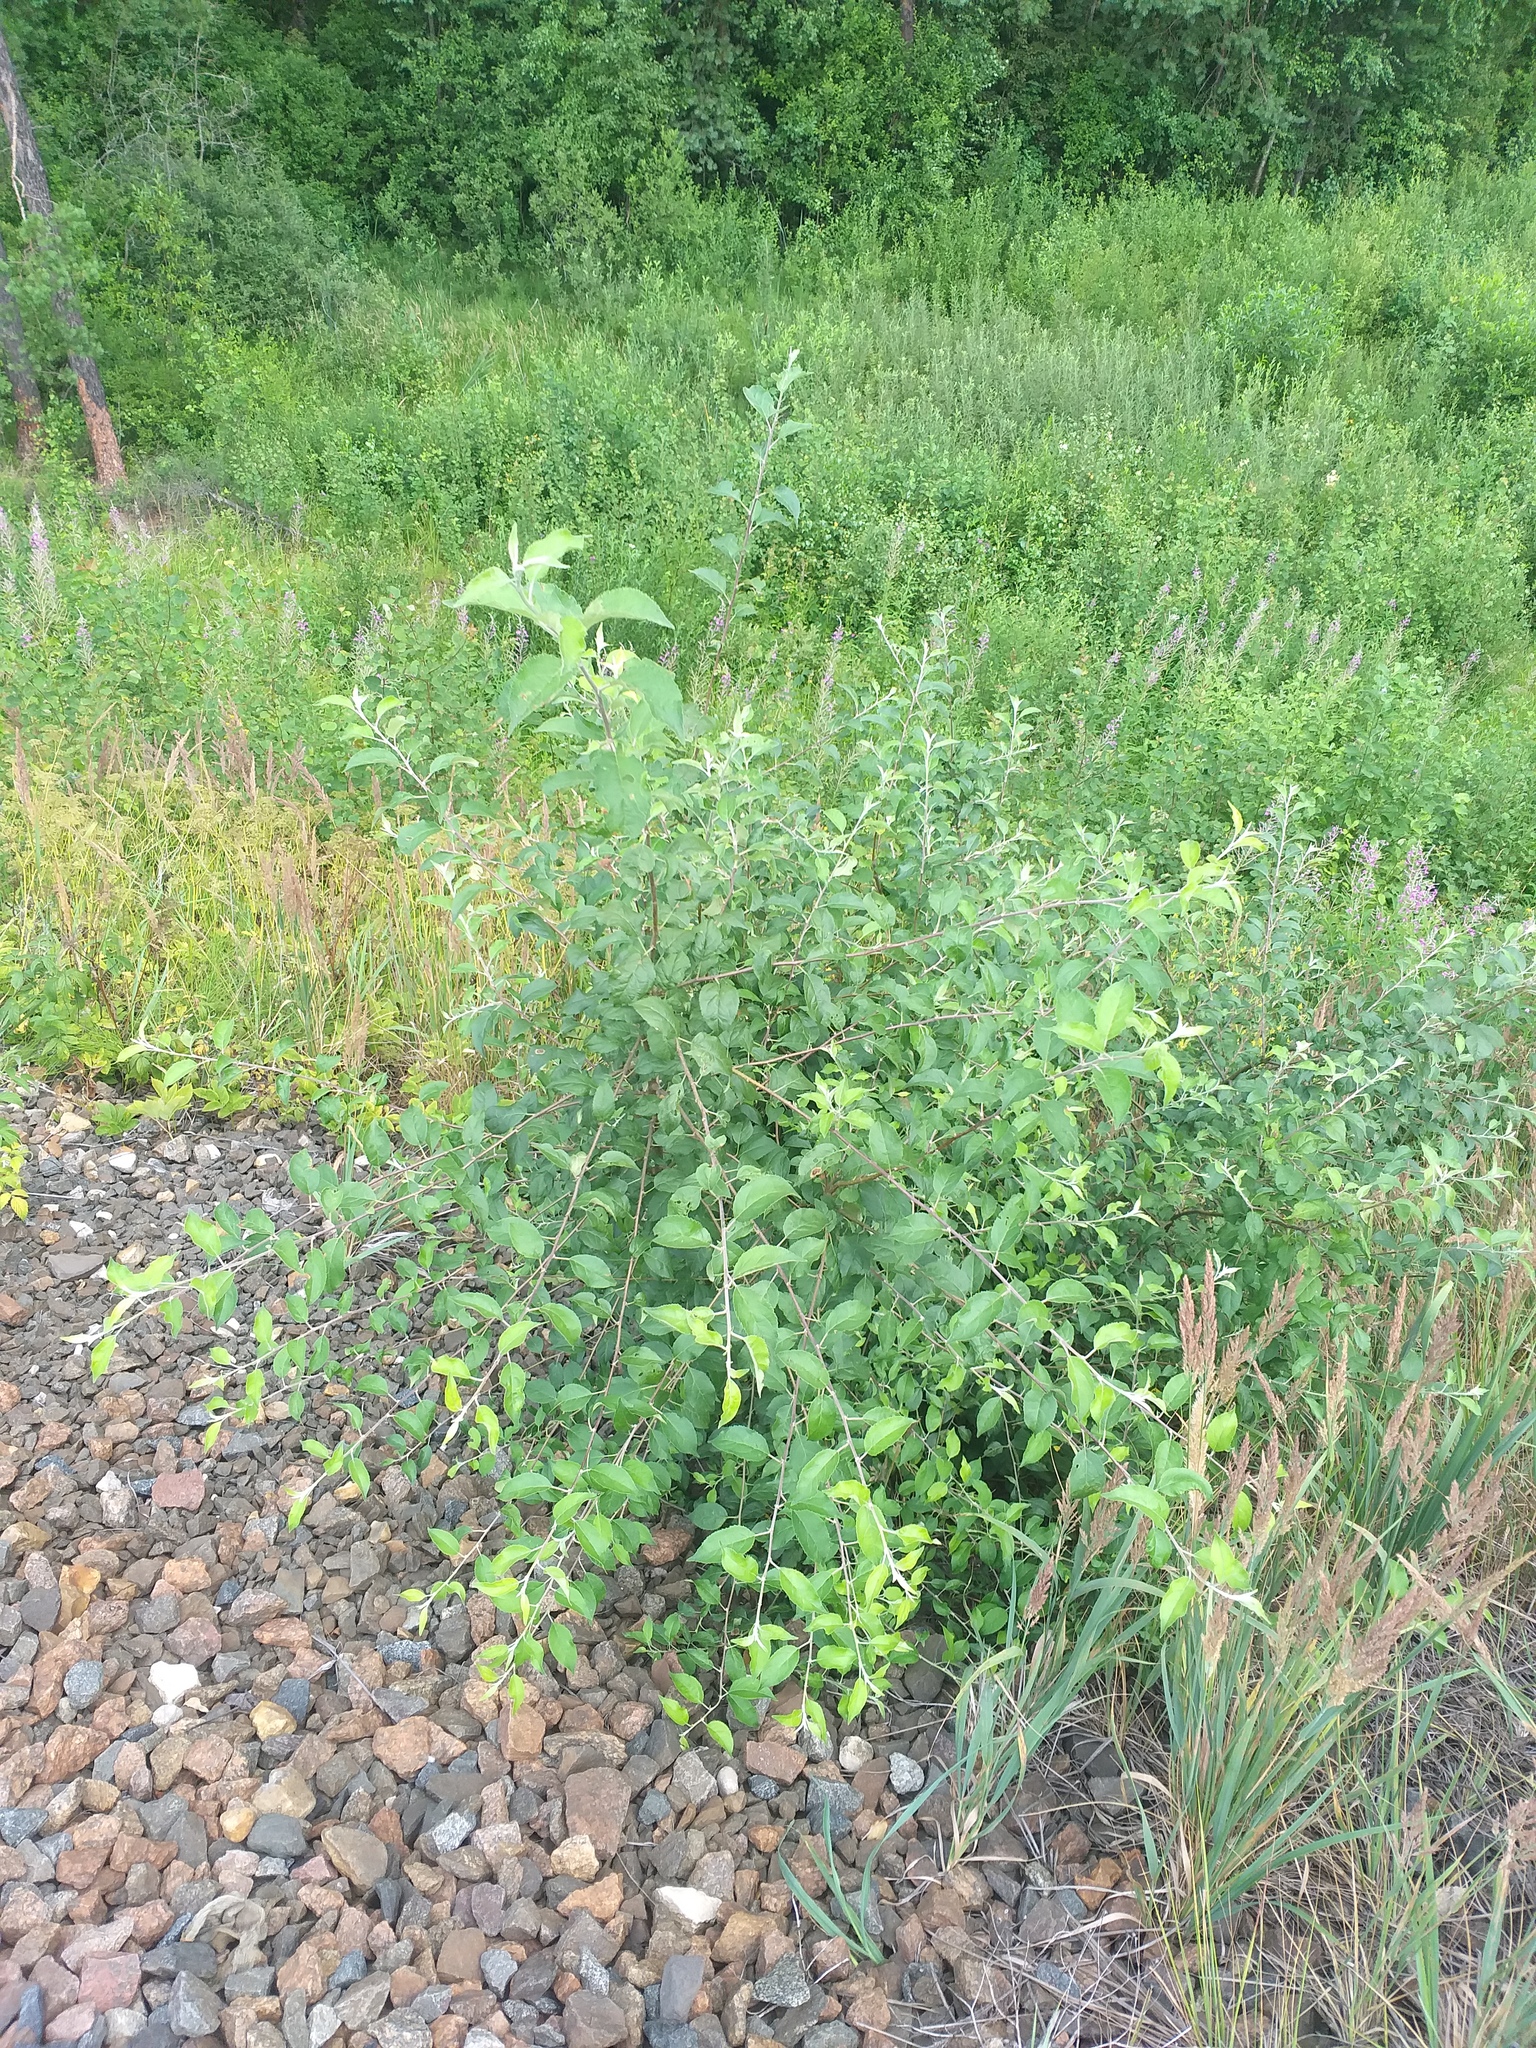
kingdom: Plantae
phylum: Tracheophyta
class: Magnoliopsida
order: Rosales
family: Rosaceae
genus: Malus
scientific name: Malus domestica
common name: Apple
